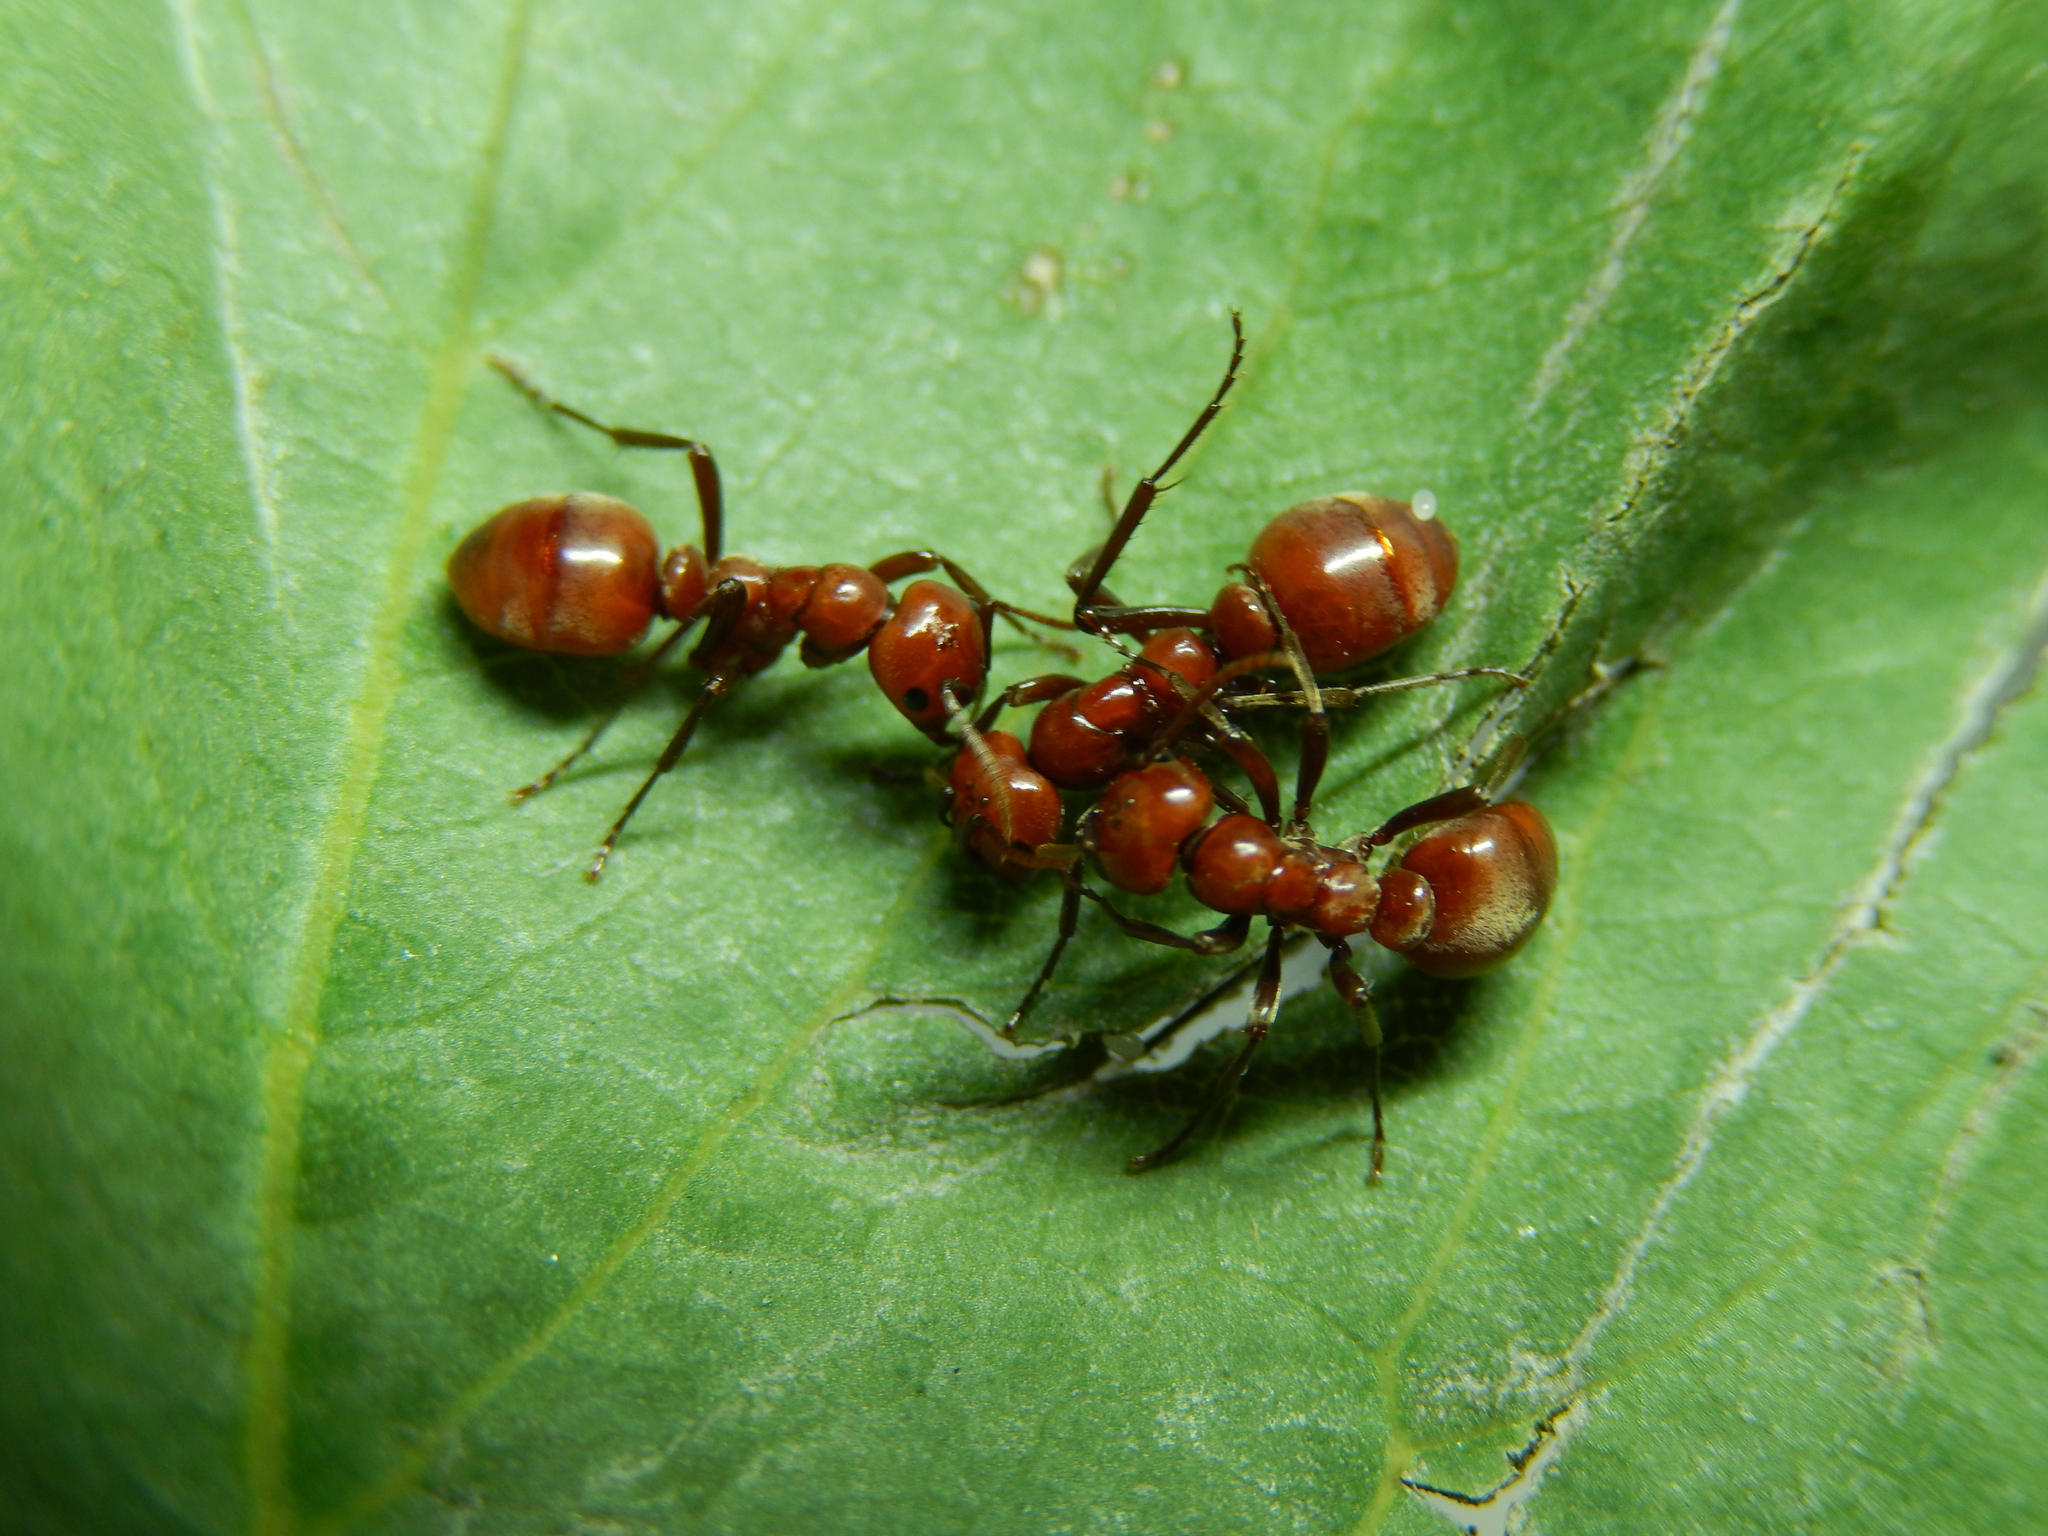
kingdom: Animalia
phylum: Arthropoda
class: Insecta
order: Hymenoptera
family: Formicidae
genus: Polyergus
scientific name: Polyergus rufescens
